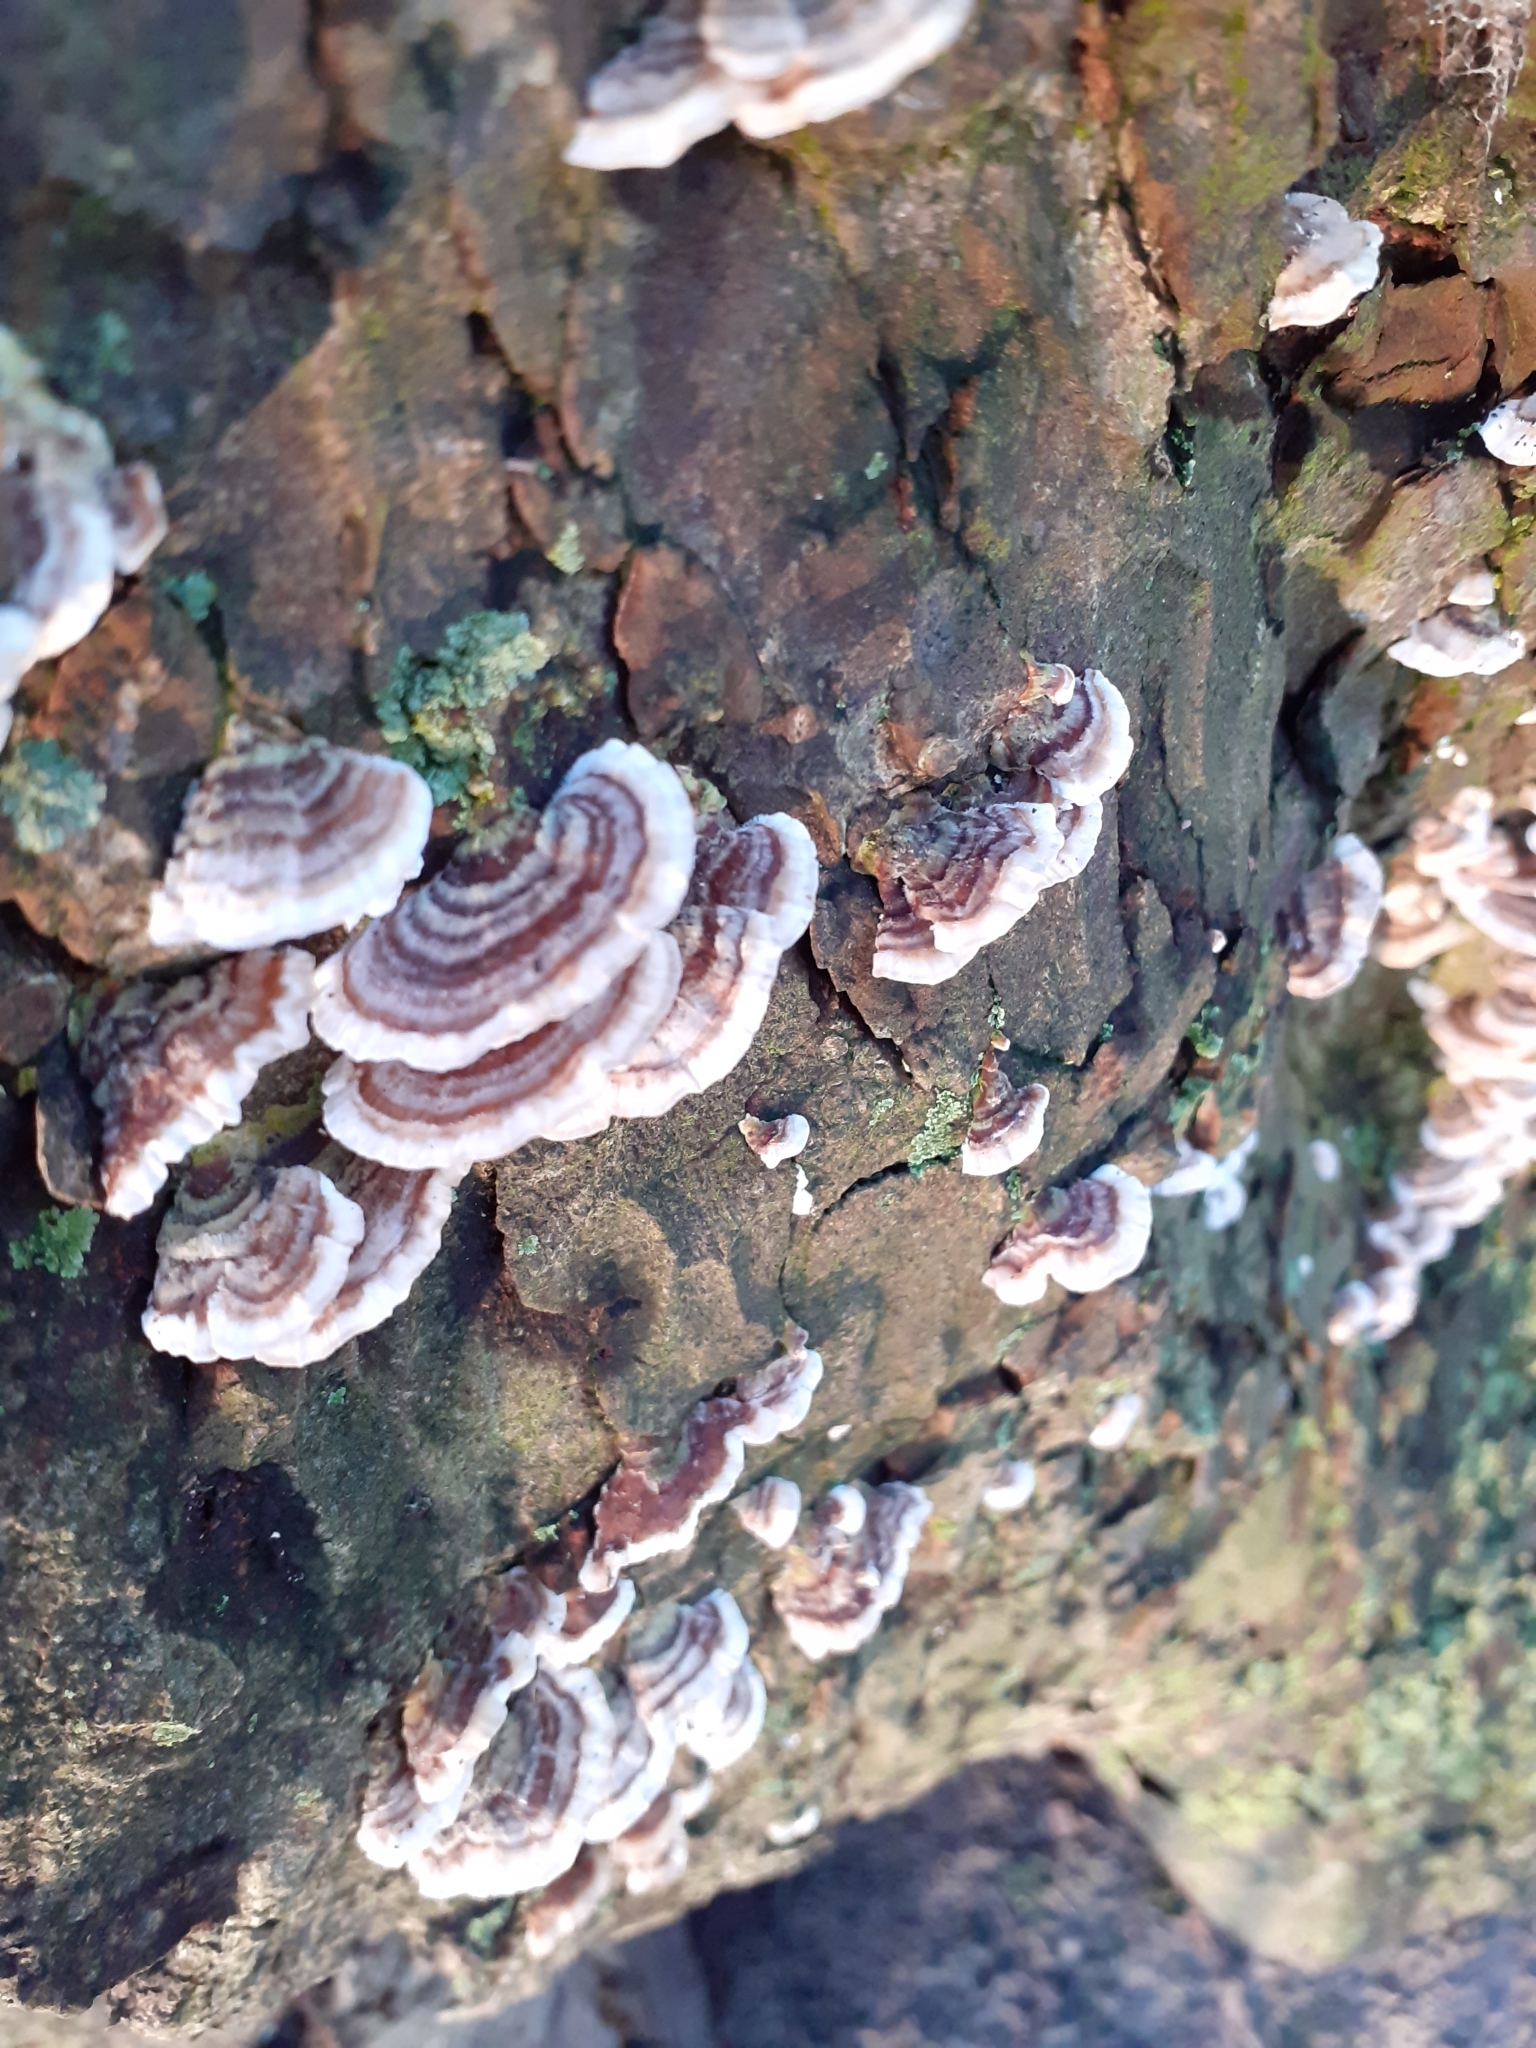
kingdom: Fungi
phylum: Basidiomycota
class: Agaricomycetes
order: Polyporales
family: Polyporaceae
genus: Trametes
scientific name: Trametes versicolor
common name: Turkeytail
